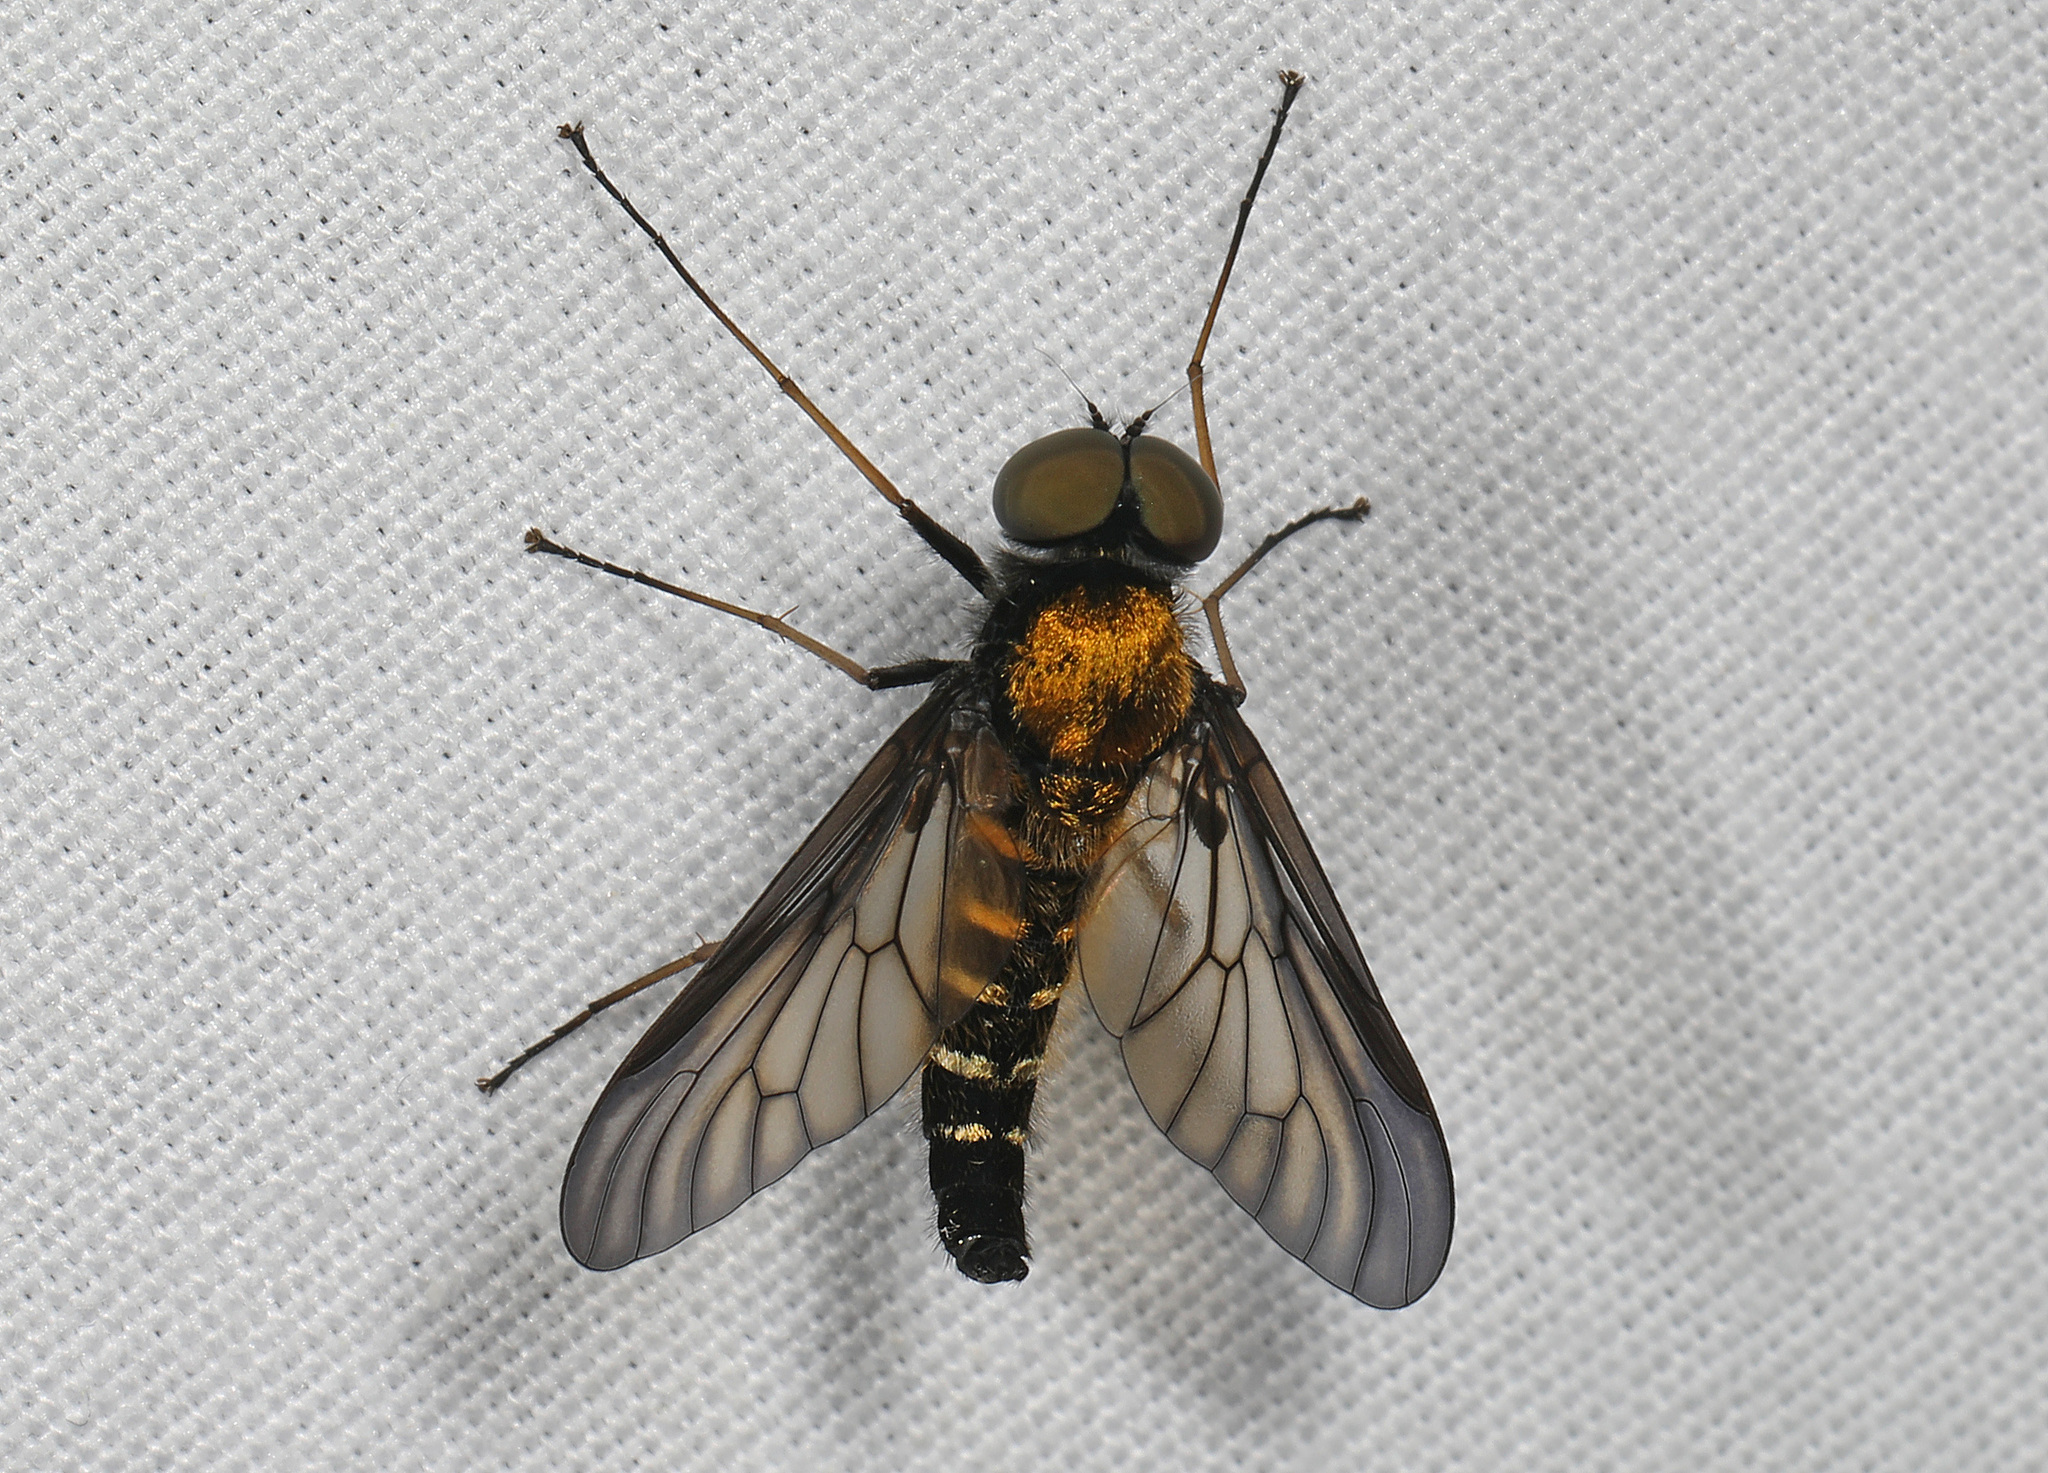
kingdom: Animalia
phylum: Arthropoda
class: Insecta
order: Diptera
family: Rhagionidae
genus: Chrysopilus
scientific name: Chrysopilus thoracicus
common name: Golden-backed snipe fly
